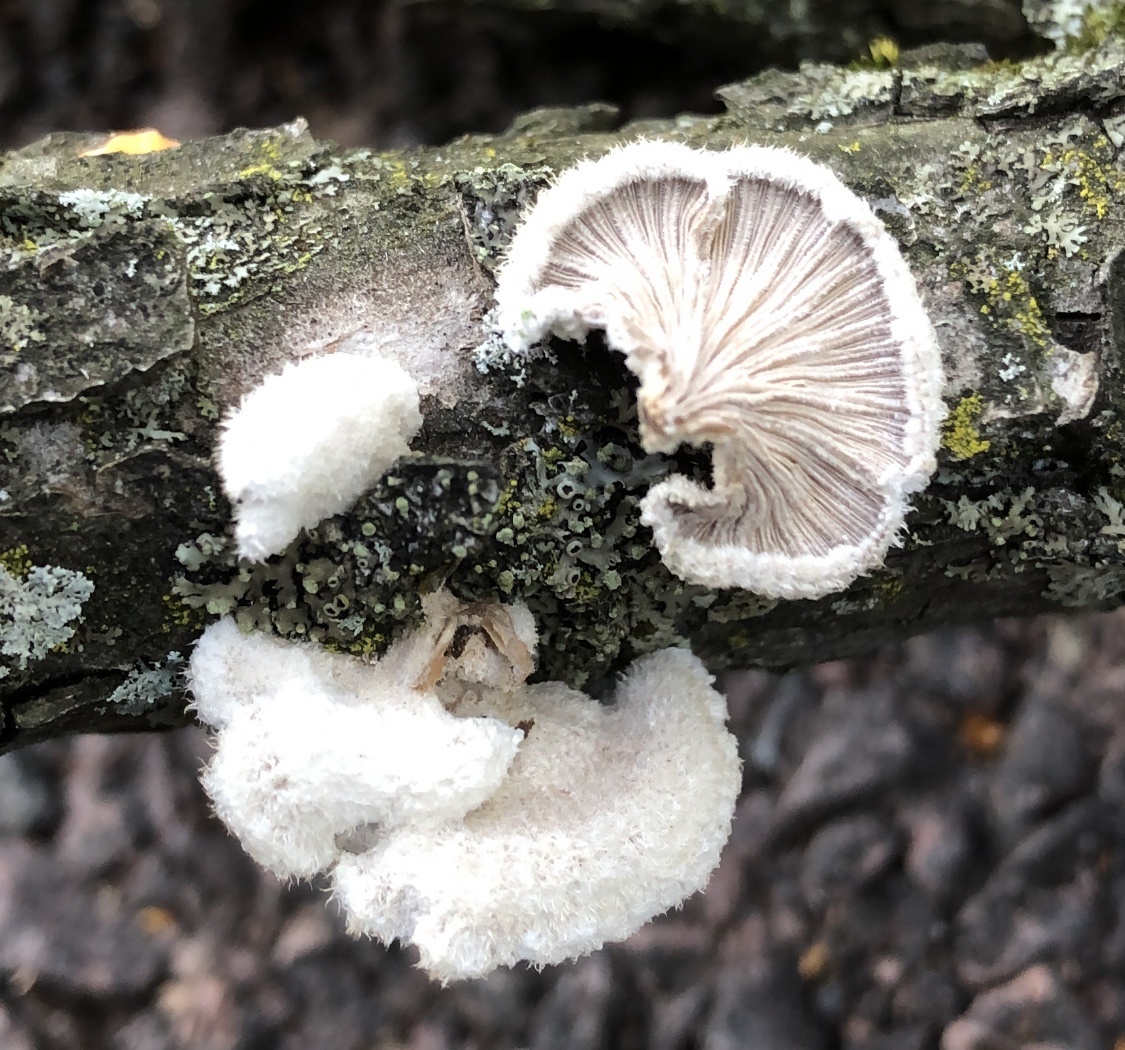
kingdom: Fungi
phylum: Basidiomycota
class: Agaricomycetes
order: Agaricales
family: Schizophyllaceae
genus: Schizophyllum
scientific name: Schizophyllum commune
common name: Common porecrust
